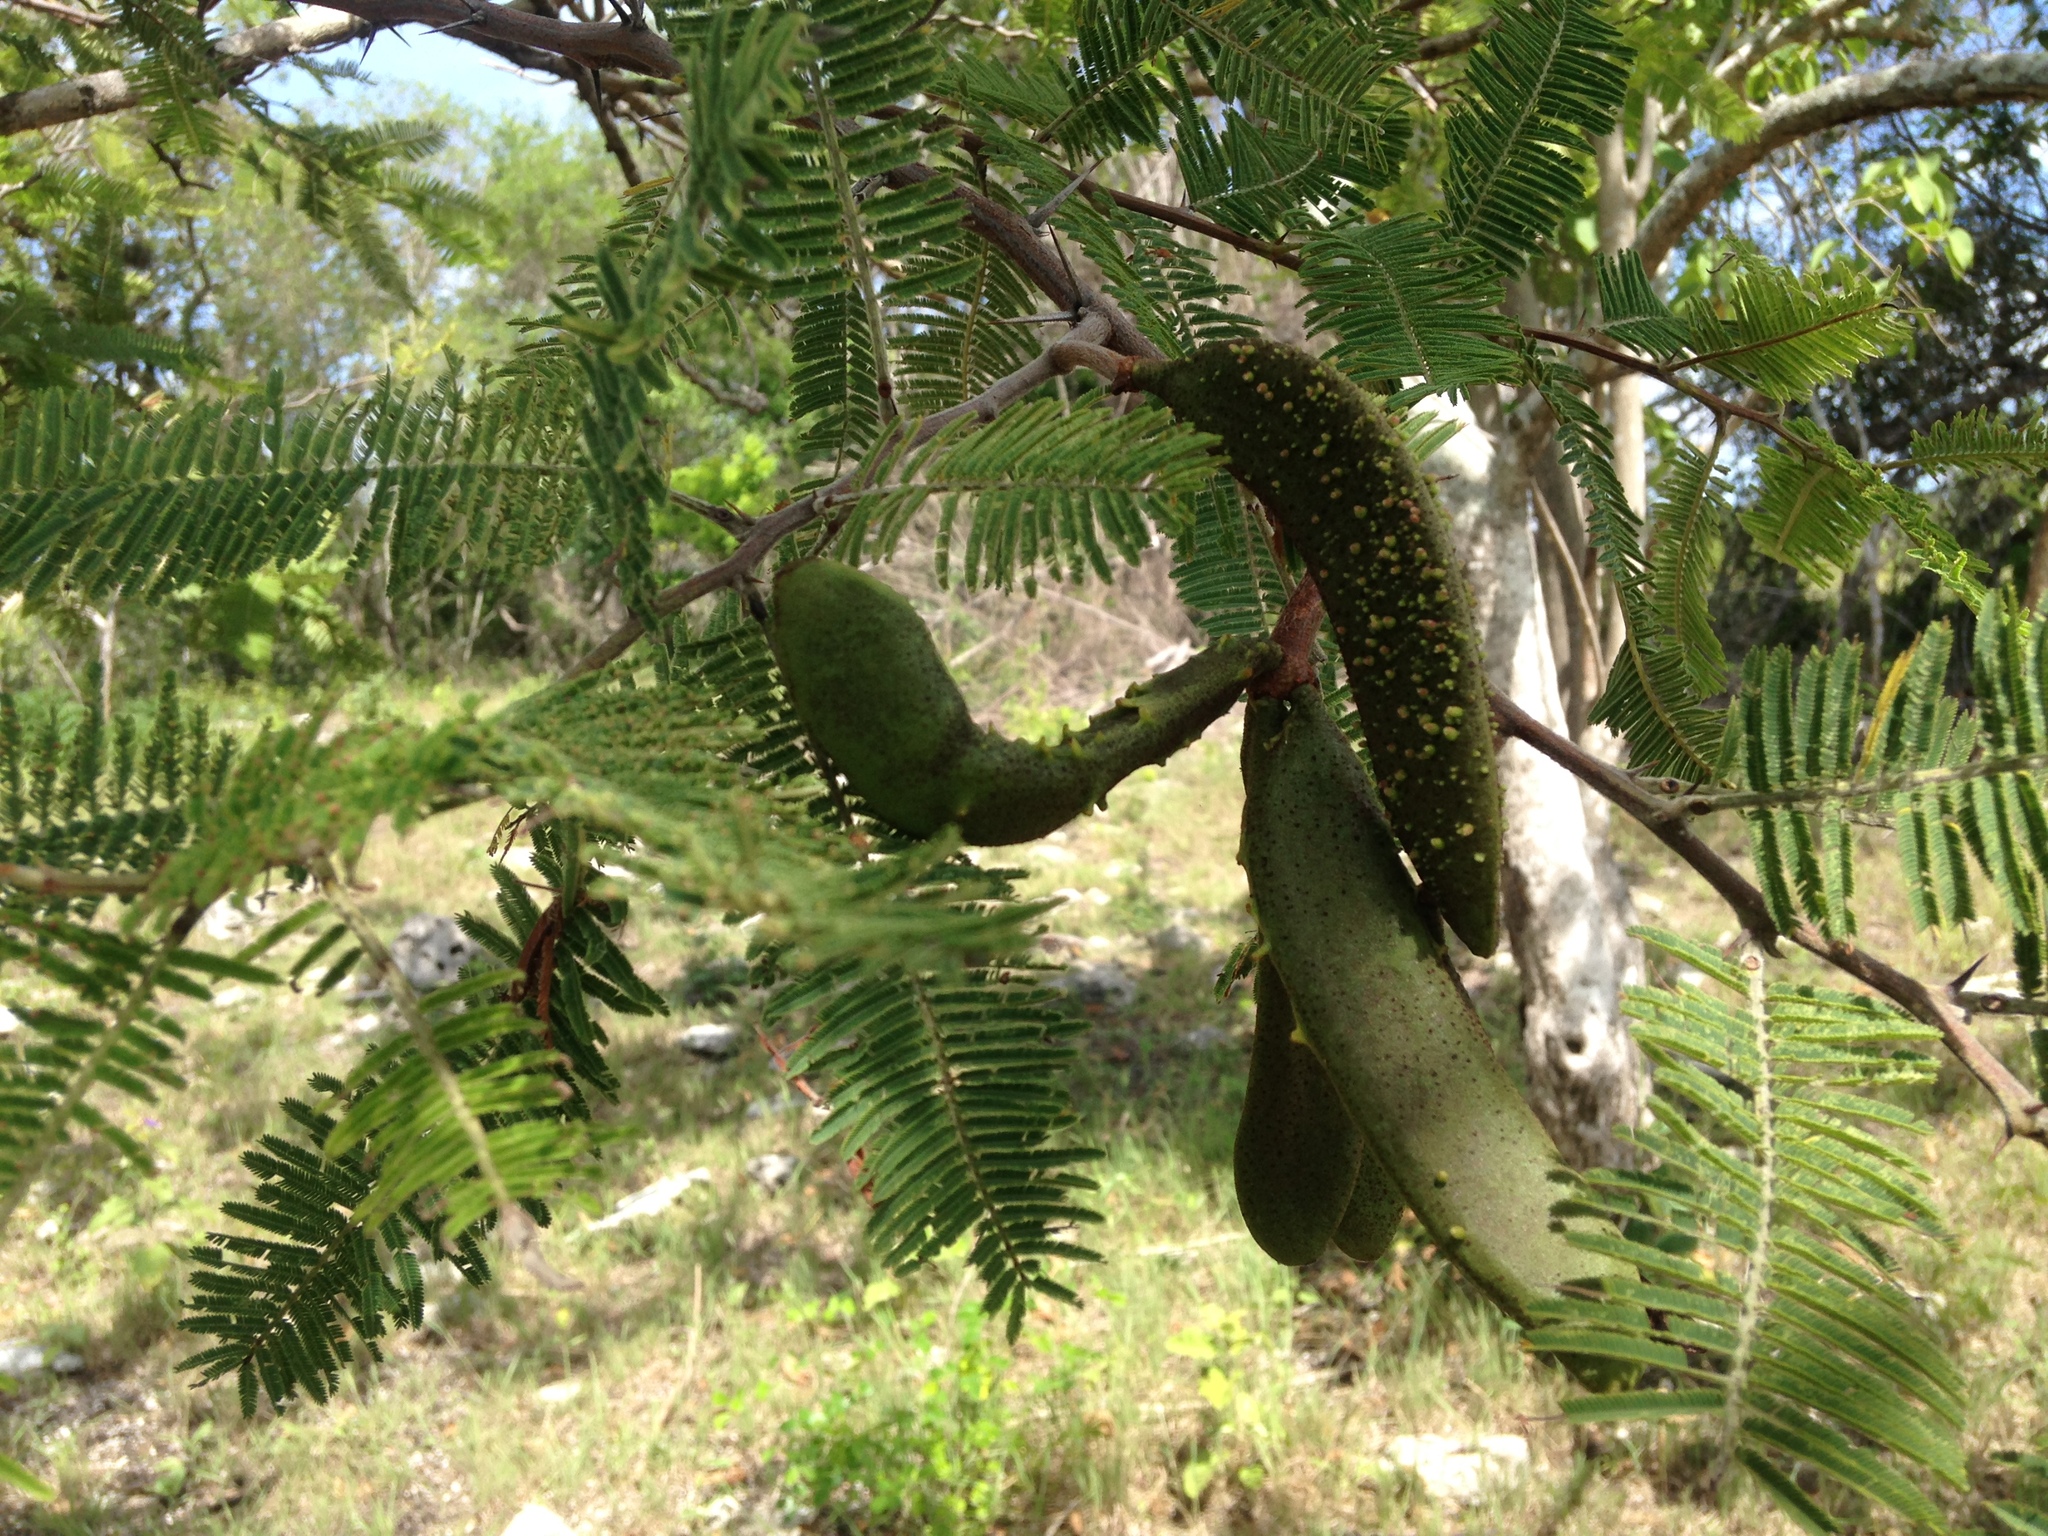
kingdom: Plantae
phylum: Tracheophyta
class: Magnoliopsida
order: Fabales
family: Fabaceae
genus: Vachellia
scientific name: Vachellia pennatula
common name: Fern-leaf acacia
